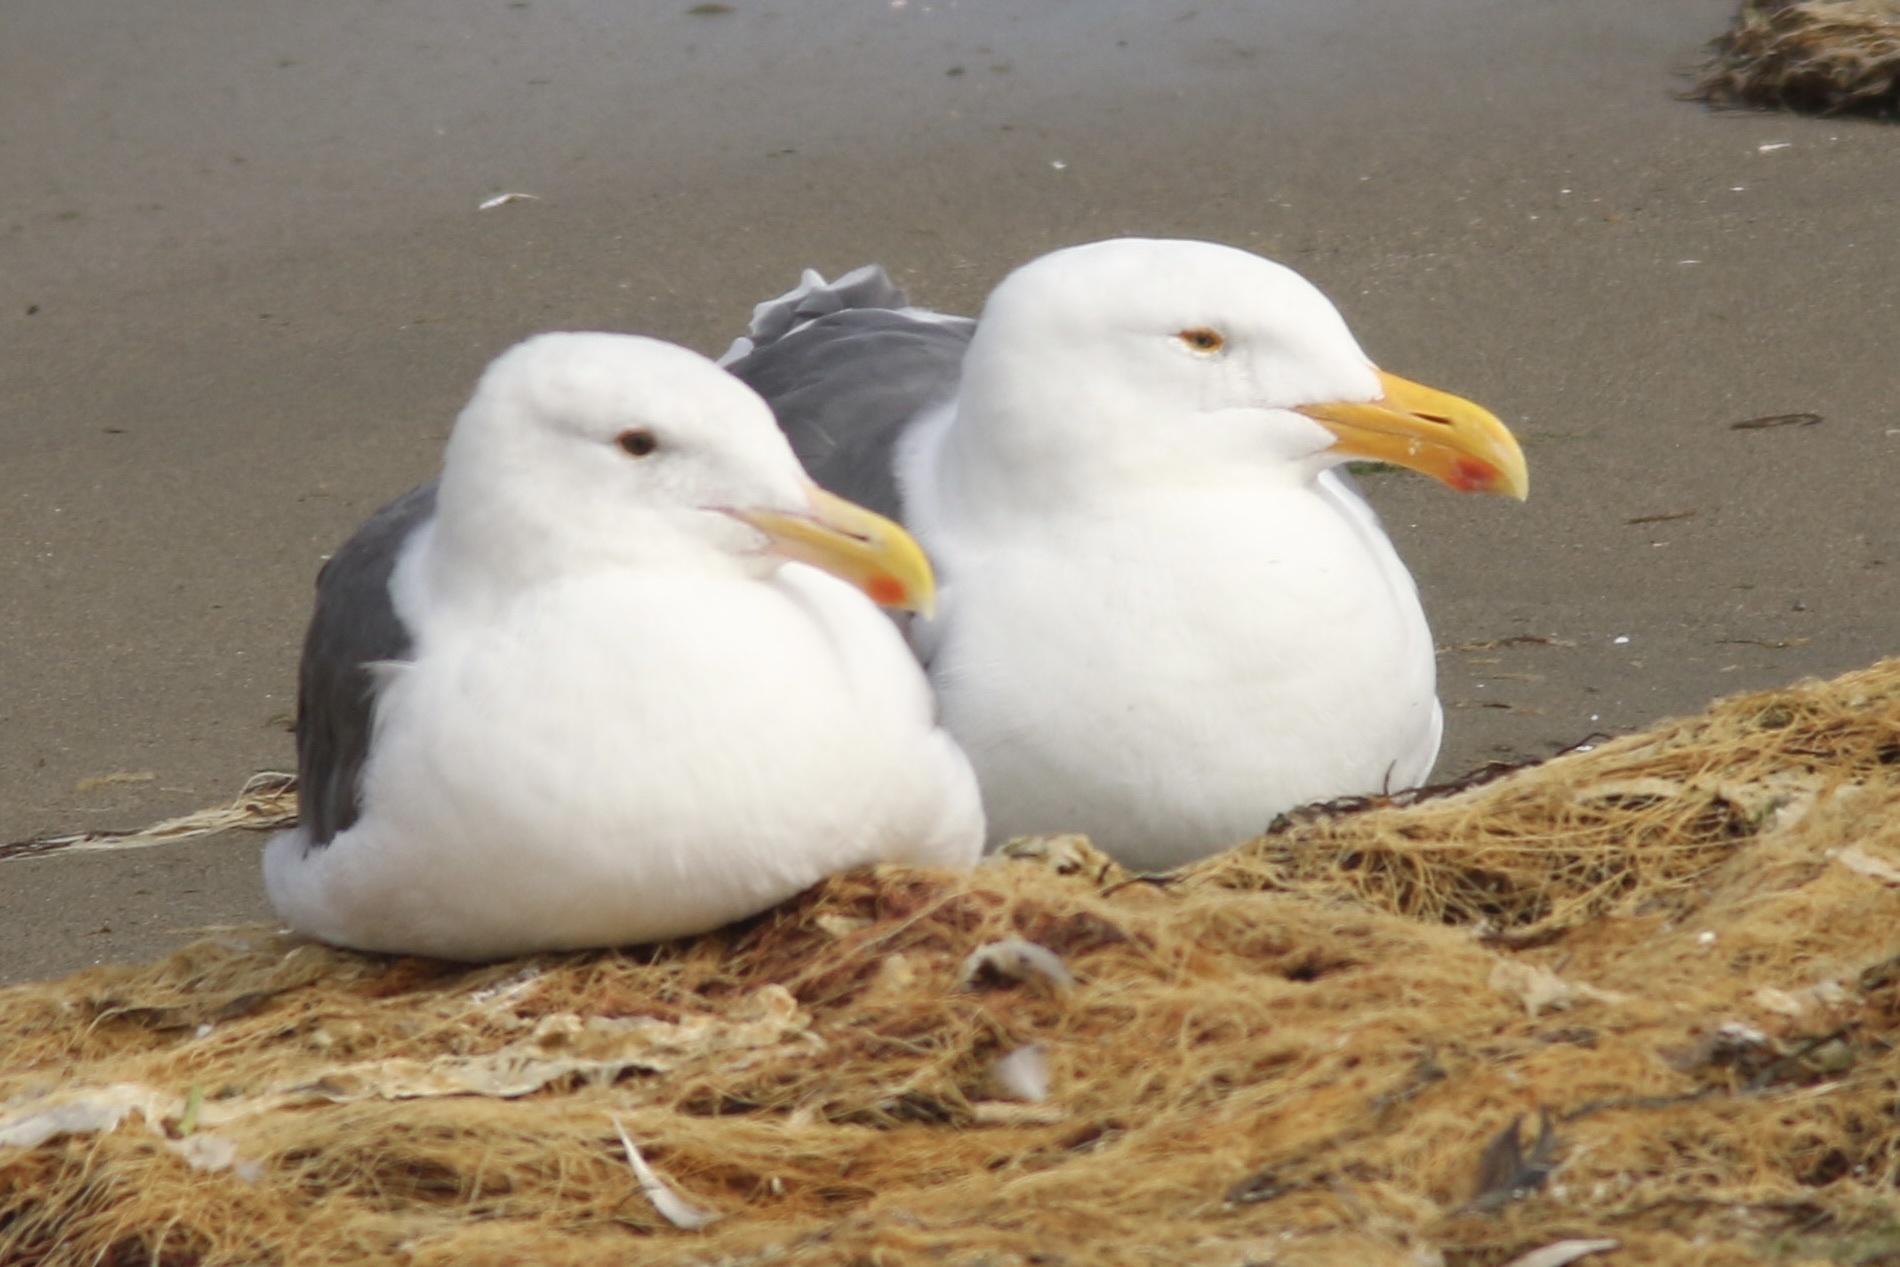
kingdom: Animalia
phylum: Chordata
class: Aves
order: Charadriiformes
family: Laridae
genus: Larus
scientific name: Larus occidentalis
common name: Western gull
